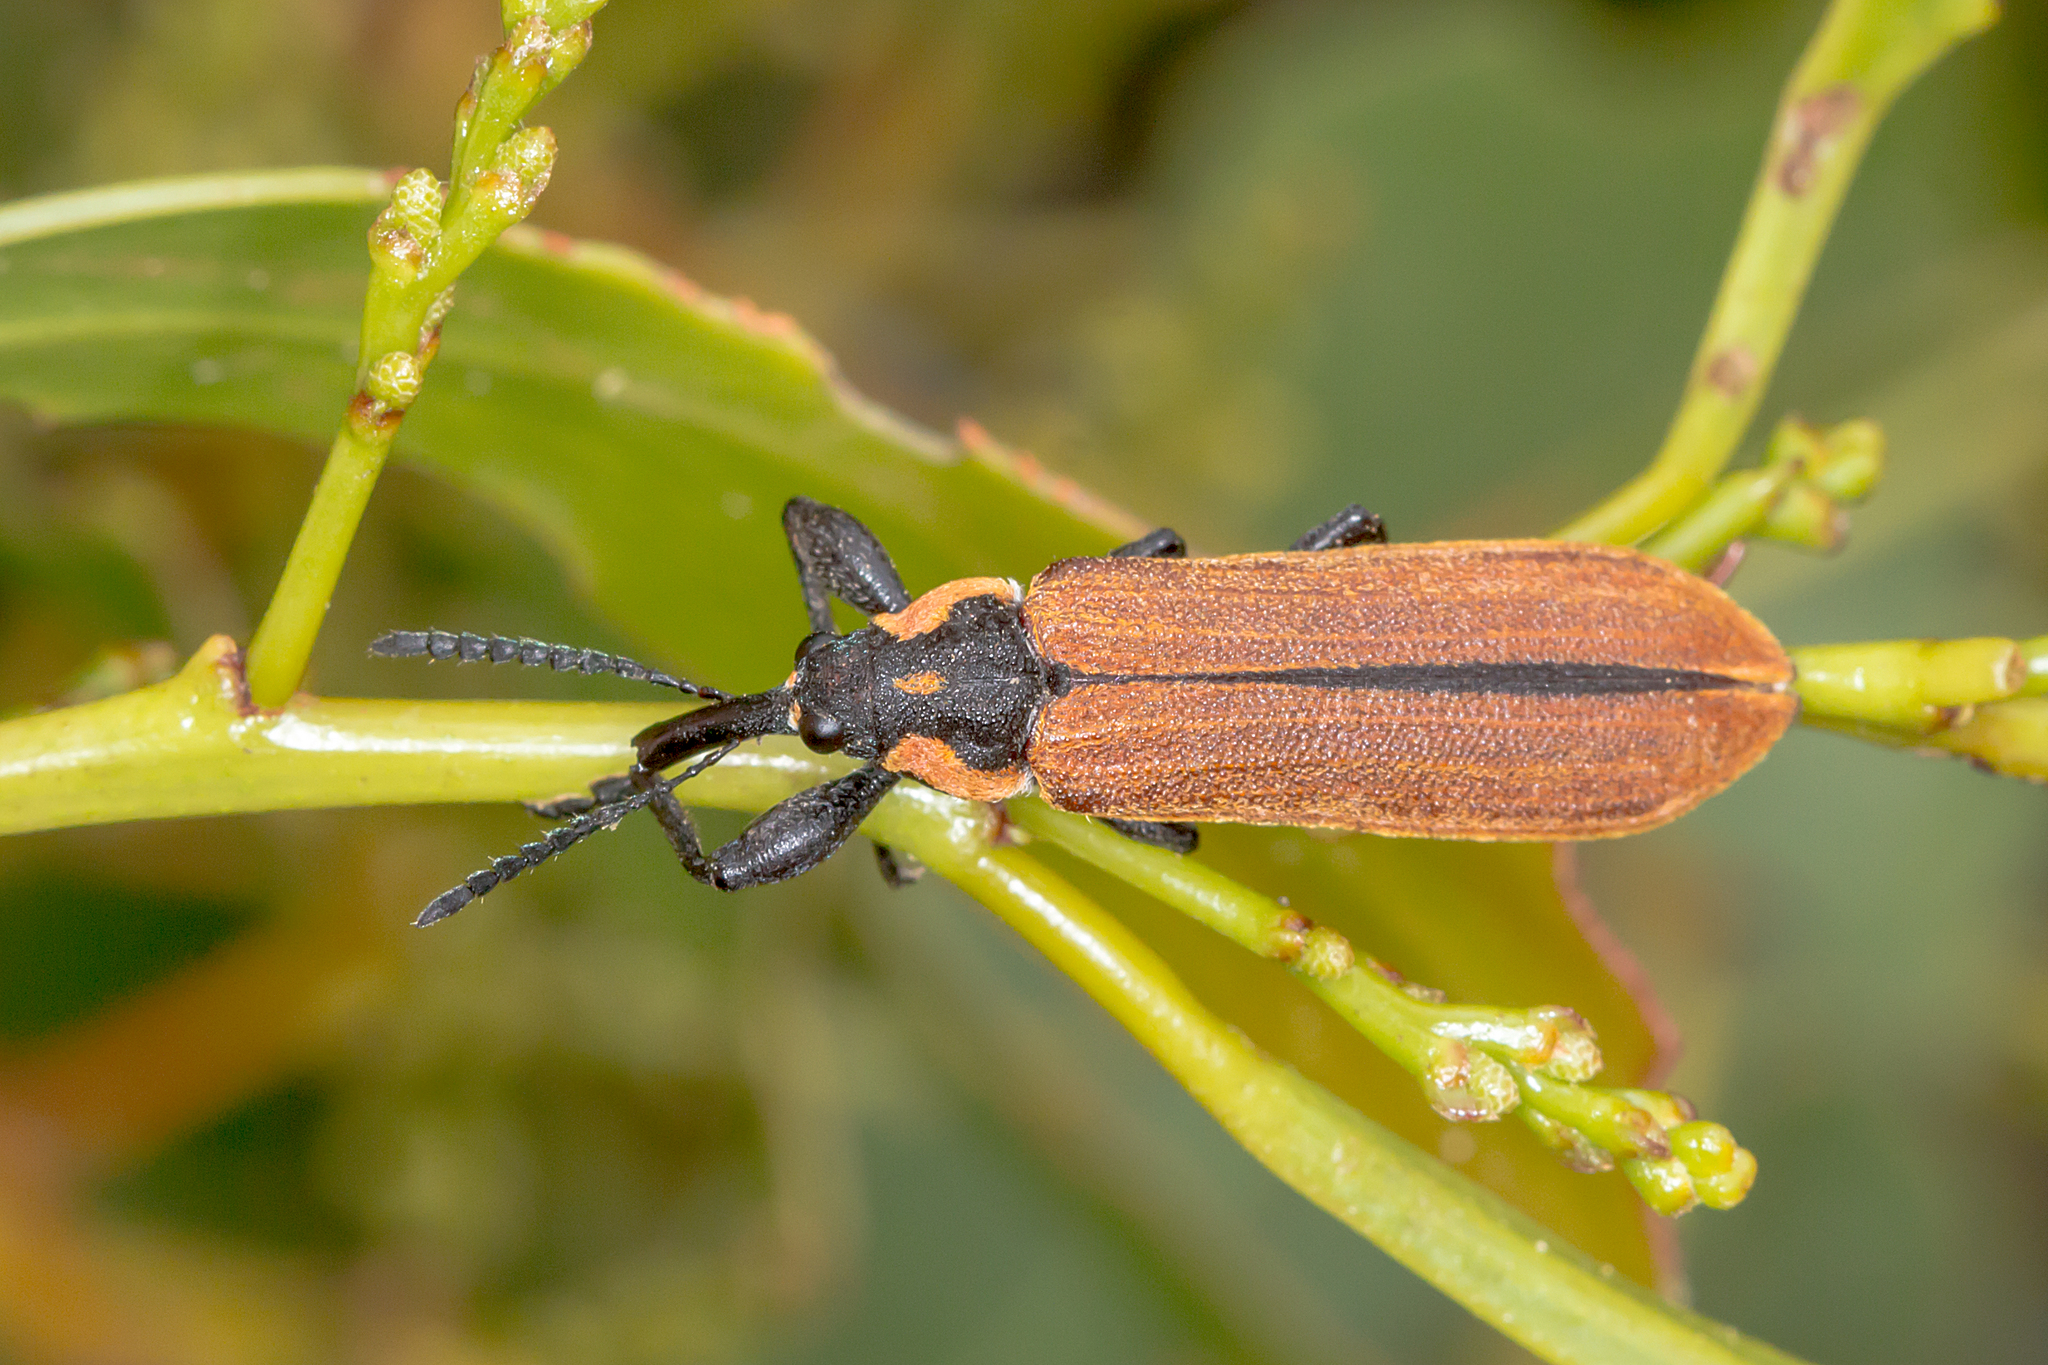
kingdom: Animalia
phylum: Arthropoda
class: Insecta
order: Coleoptera
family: Belidae
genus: Rhinotia
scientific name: Rhinotia haemoptera
